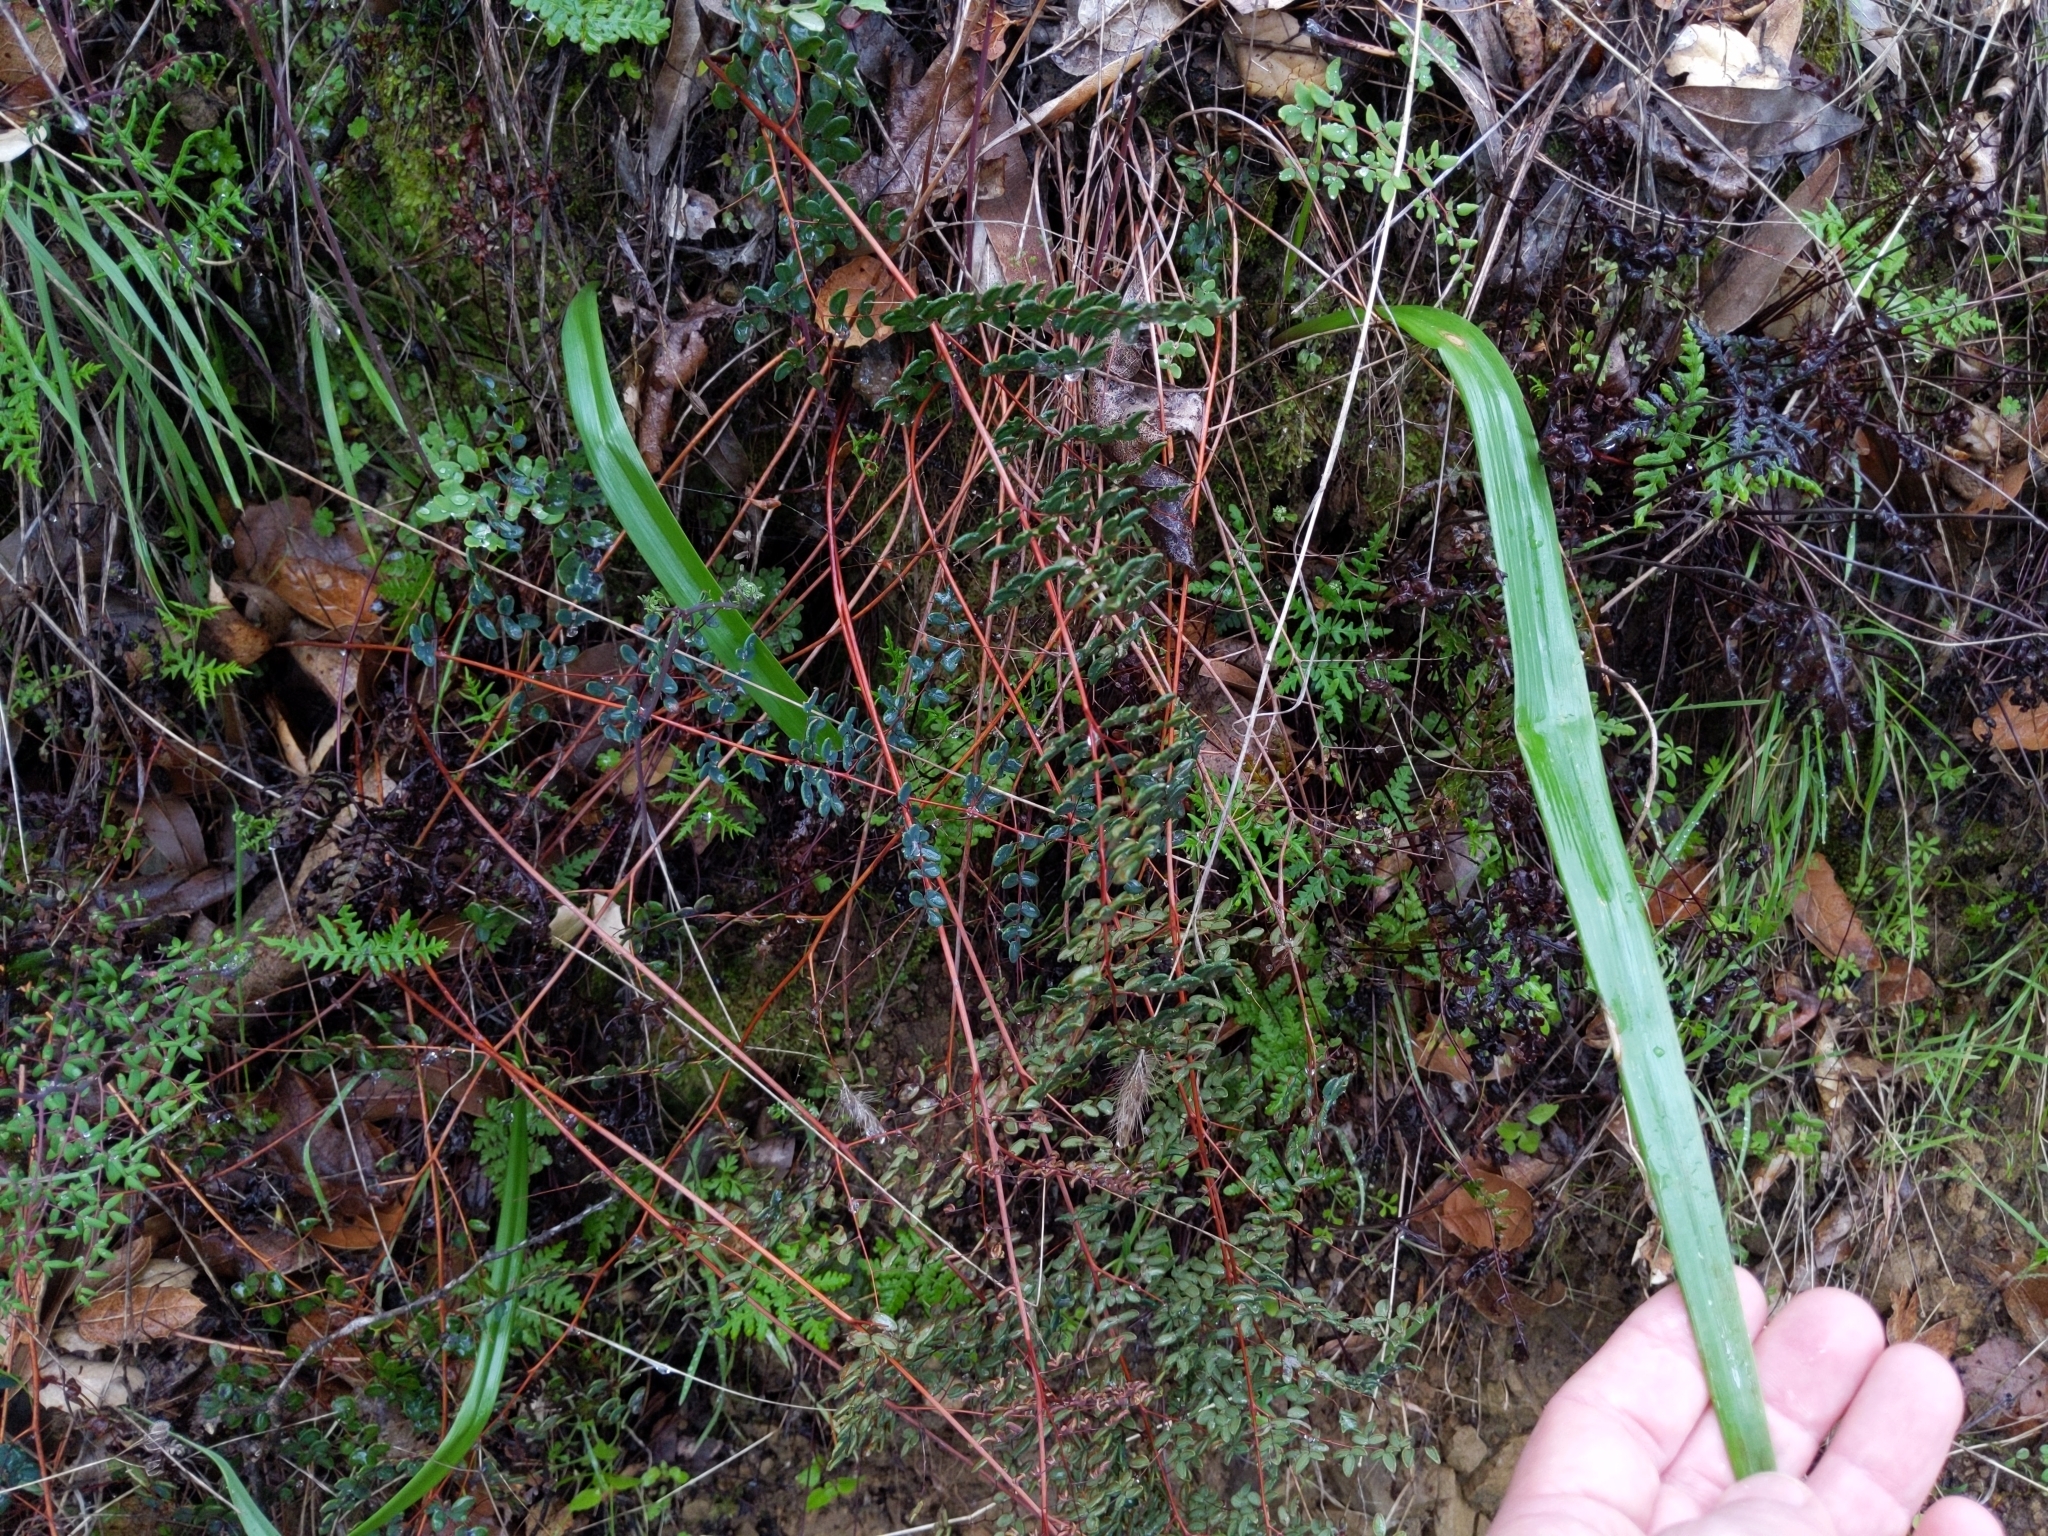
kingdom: Plantae
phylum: Tracheophyta
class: Liliopsida
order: Liliales
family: Liliaceae
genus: Calochortus
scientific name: Calochortus albus
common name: Fairy-lantern
